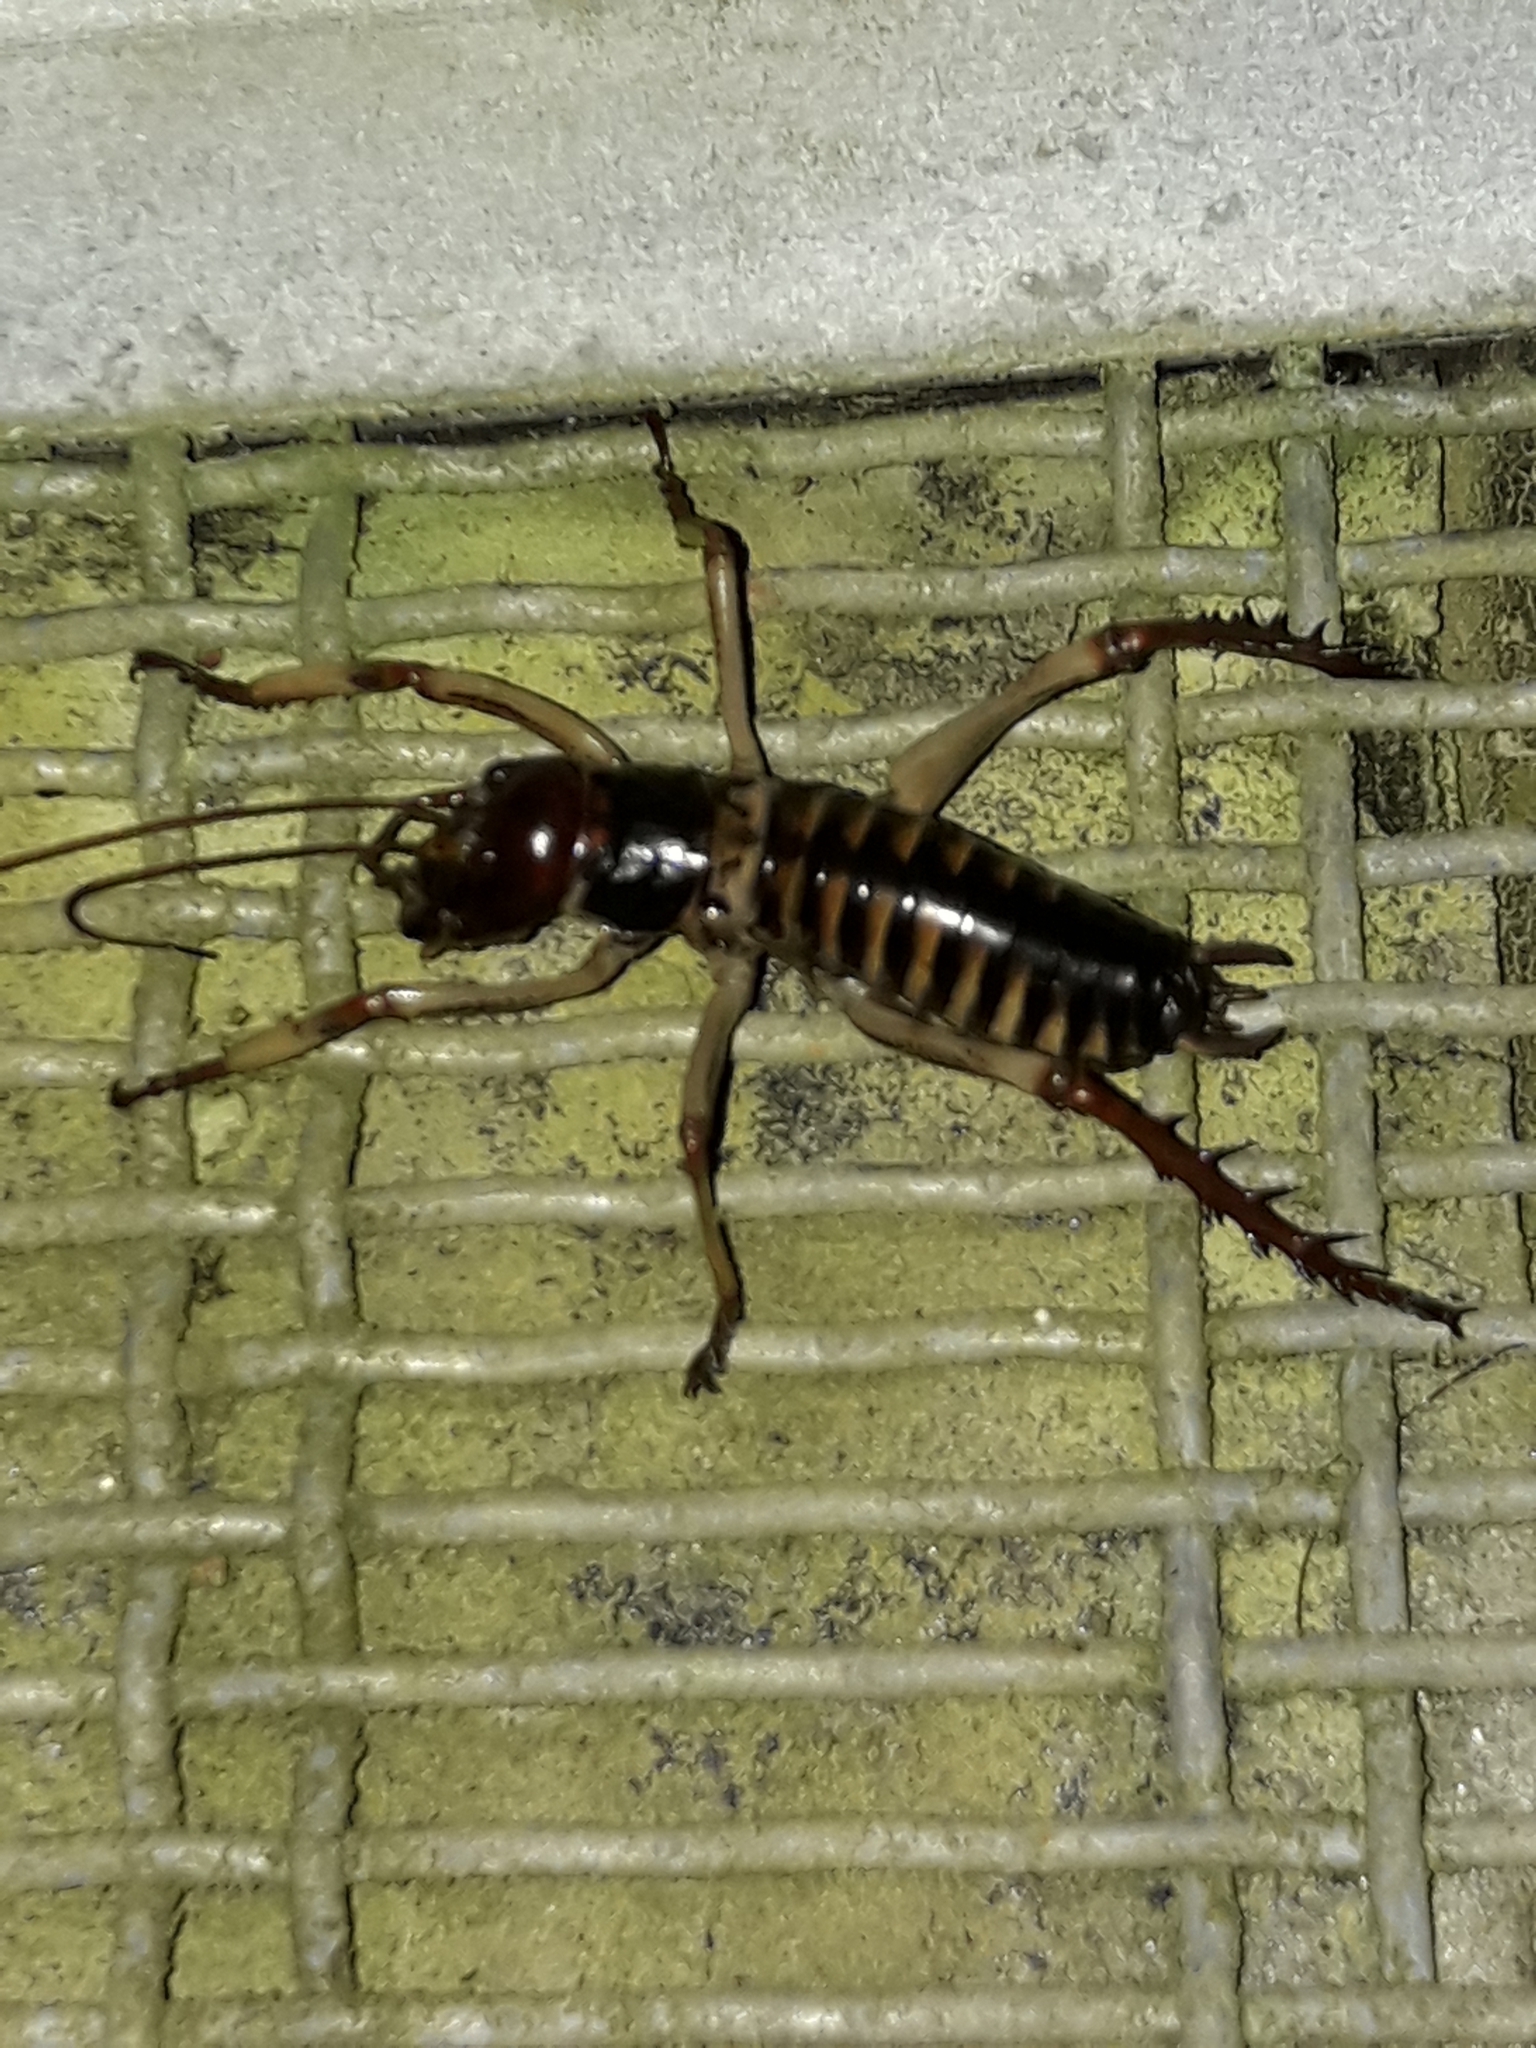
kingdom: Animalia
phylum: Arthropoda
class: Insecta
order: Orthoptera
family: Anostostomatidae
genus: Hemideina
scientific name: Hemideina crassidens
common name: Wellington tree weta
